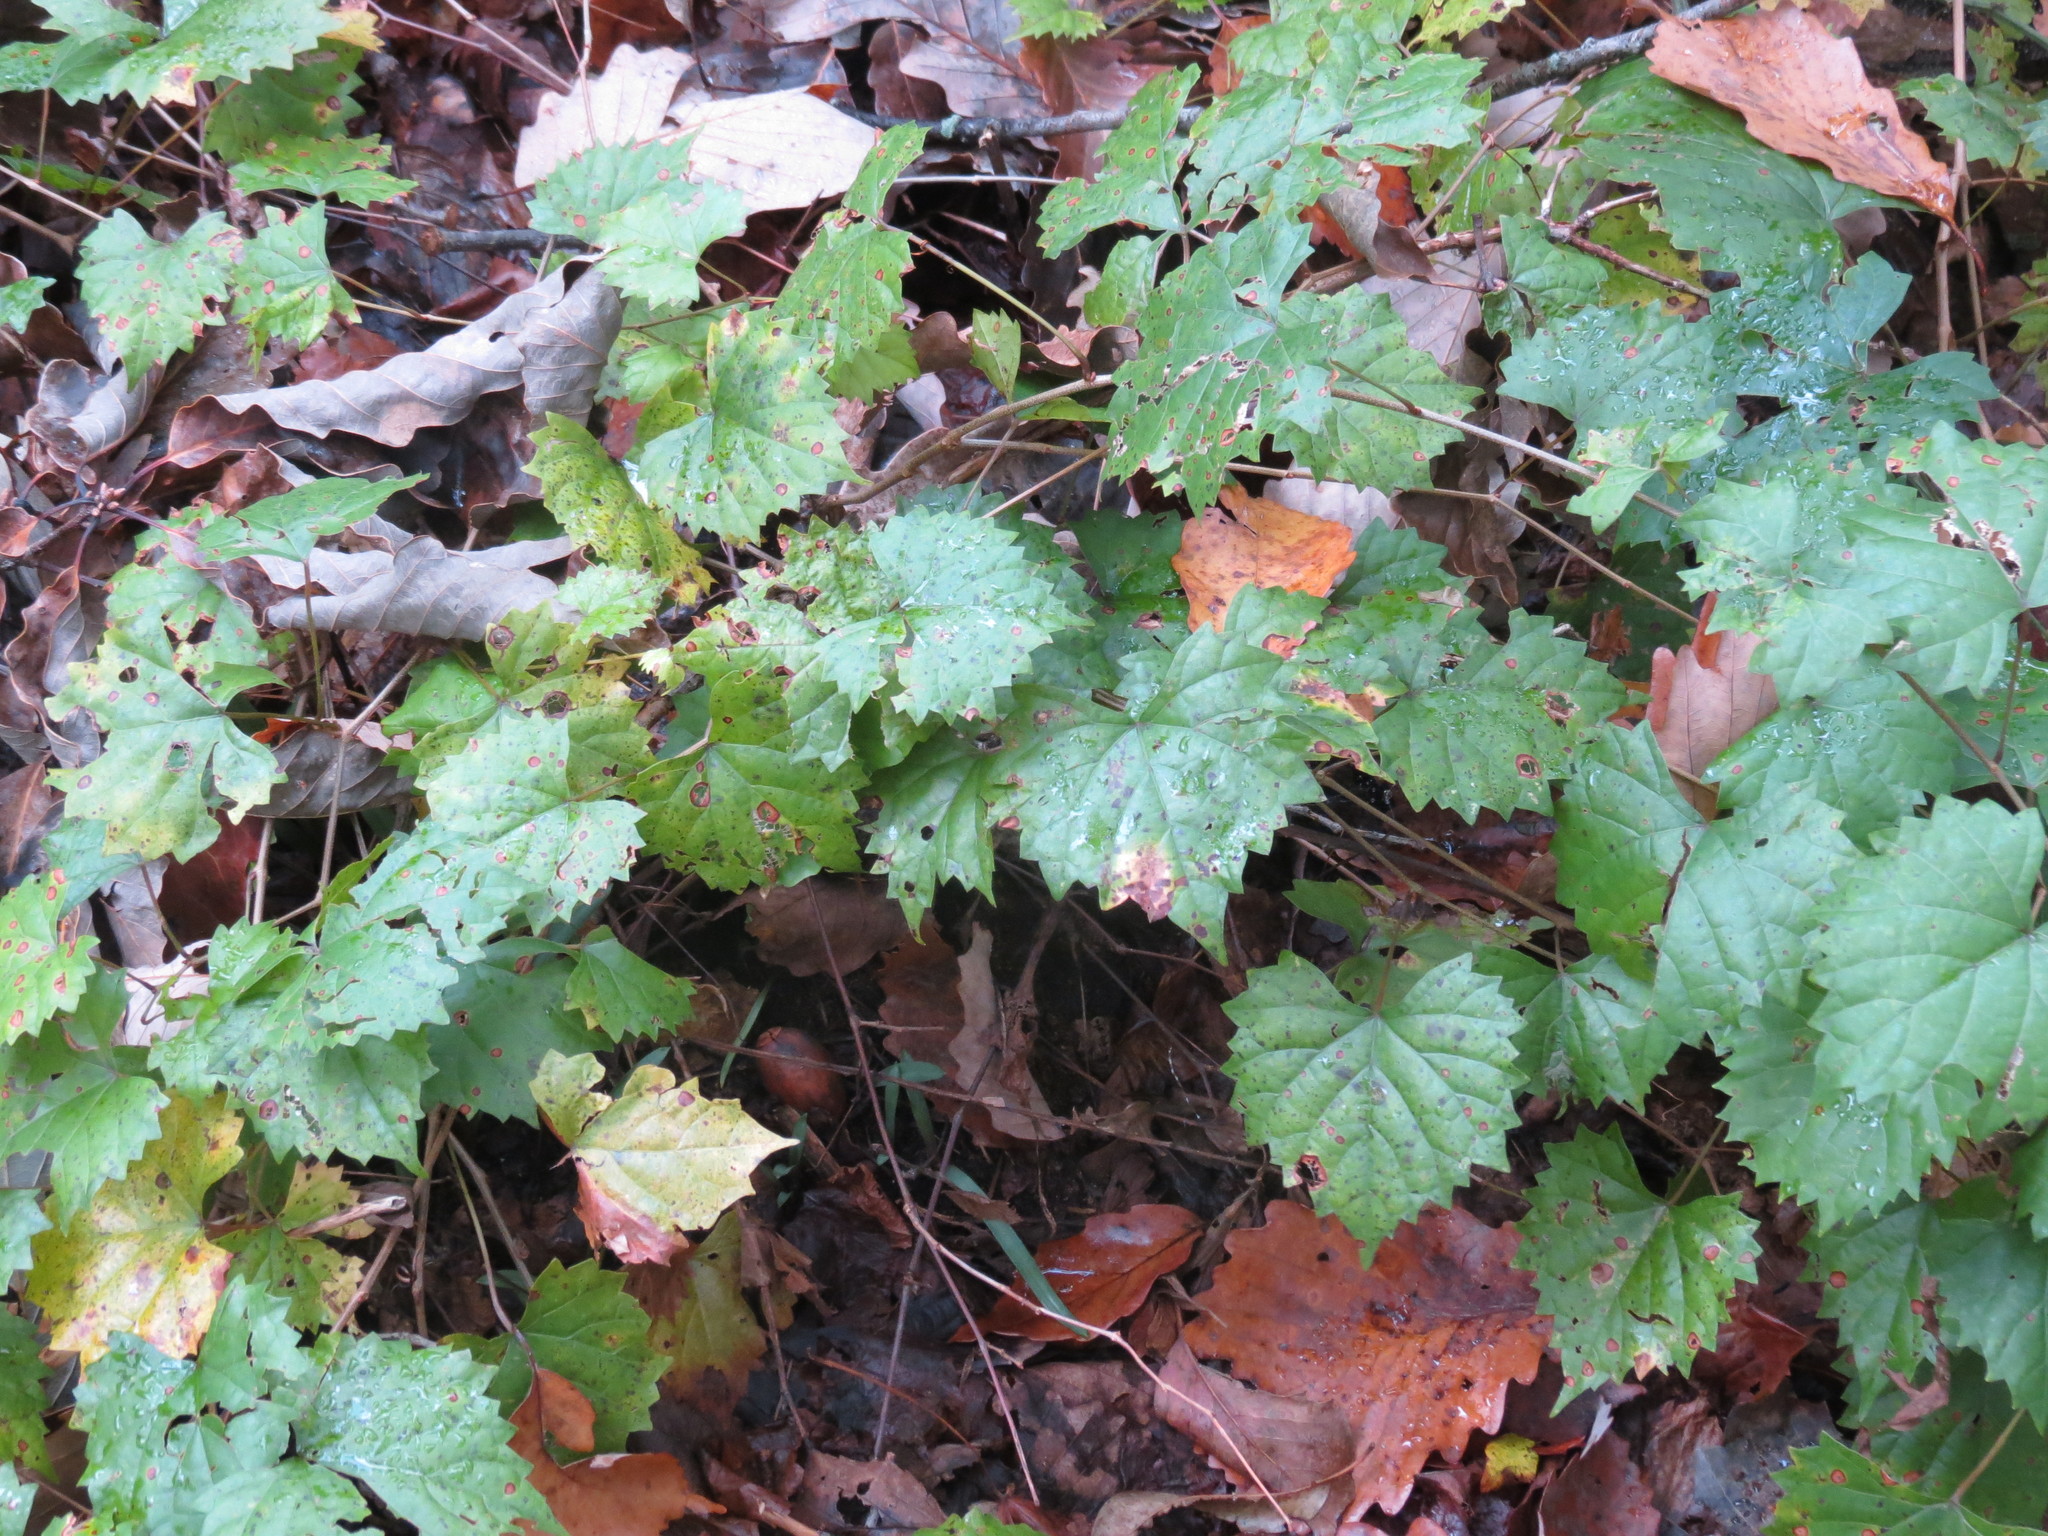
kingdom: Plantae
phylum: Tracheophyta
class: Magnoliopsida
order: Vitales
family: Vitaceae
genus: Vitis
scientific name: Vitis rotundifolia
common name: Muscadine grape
